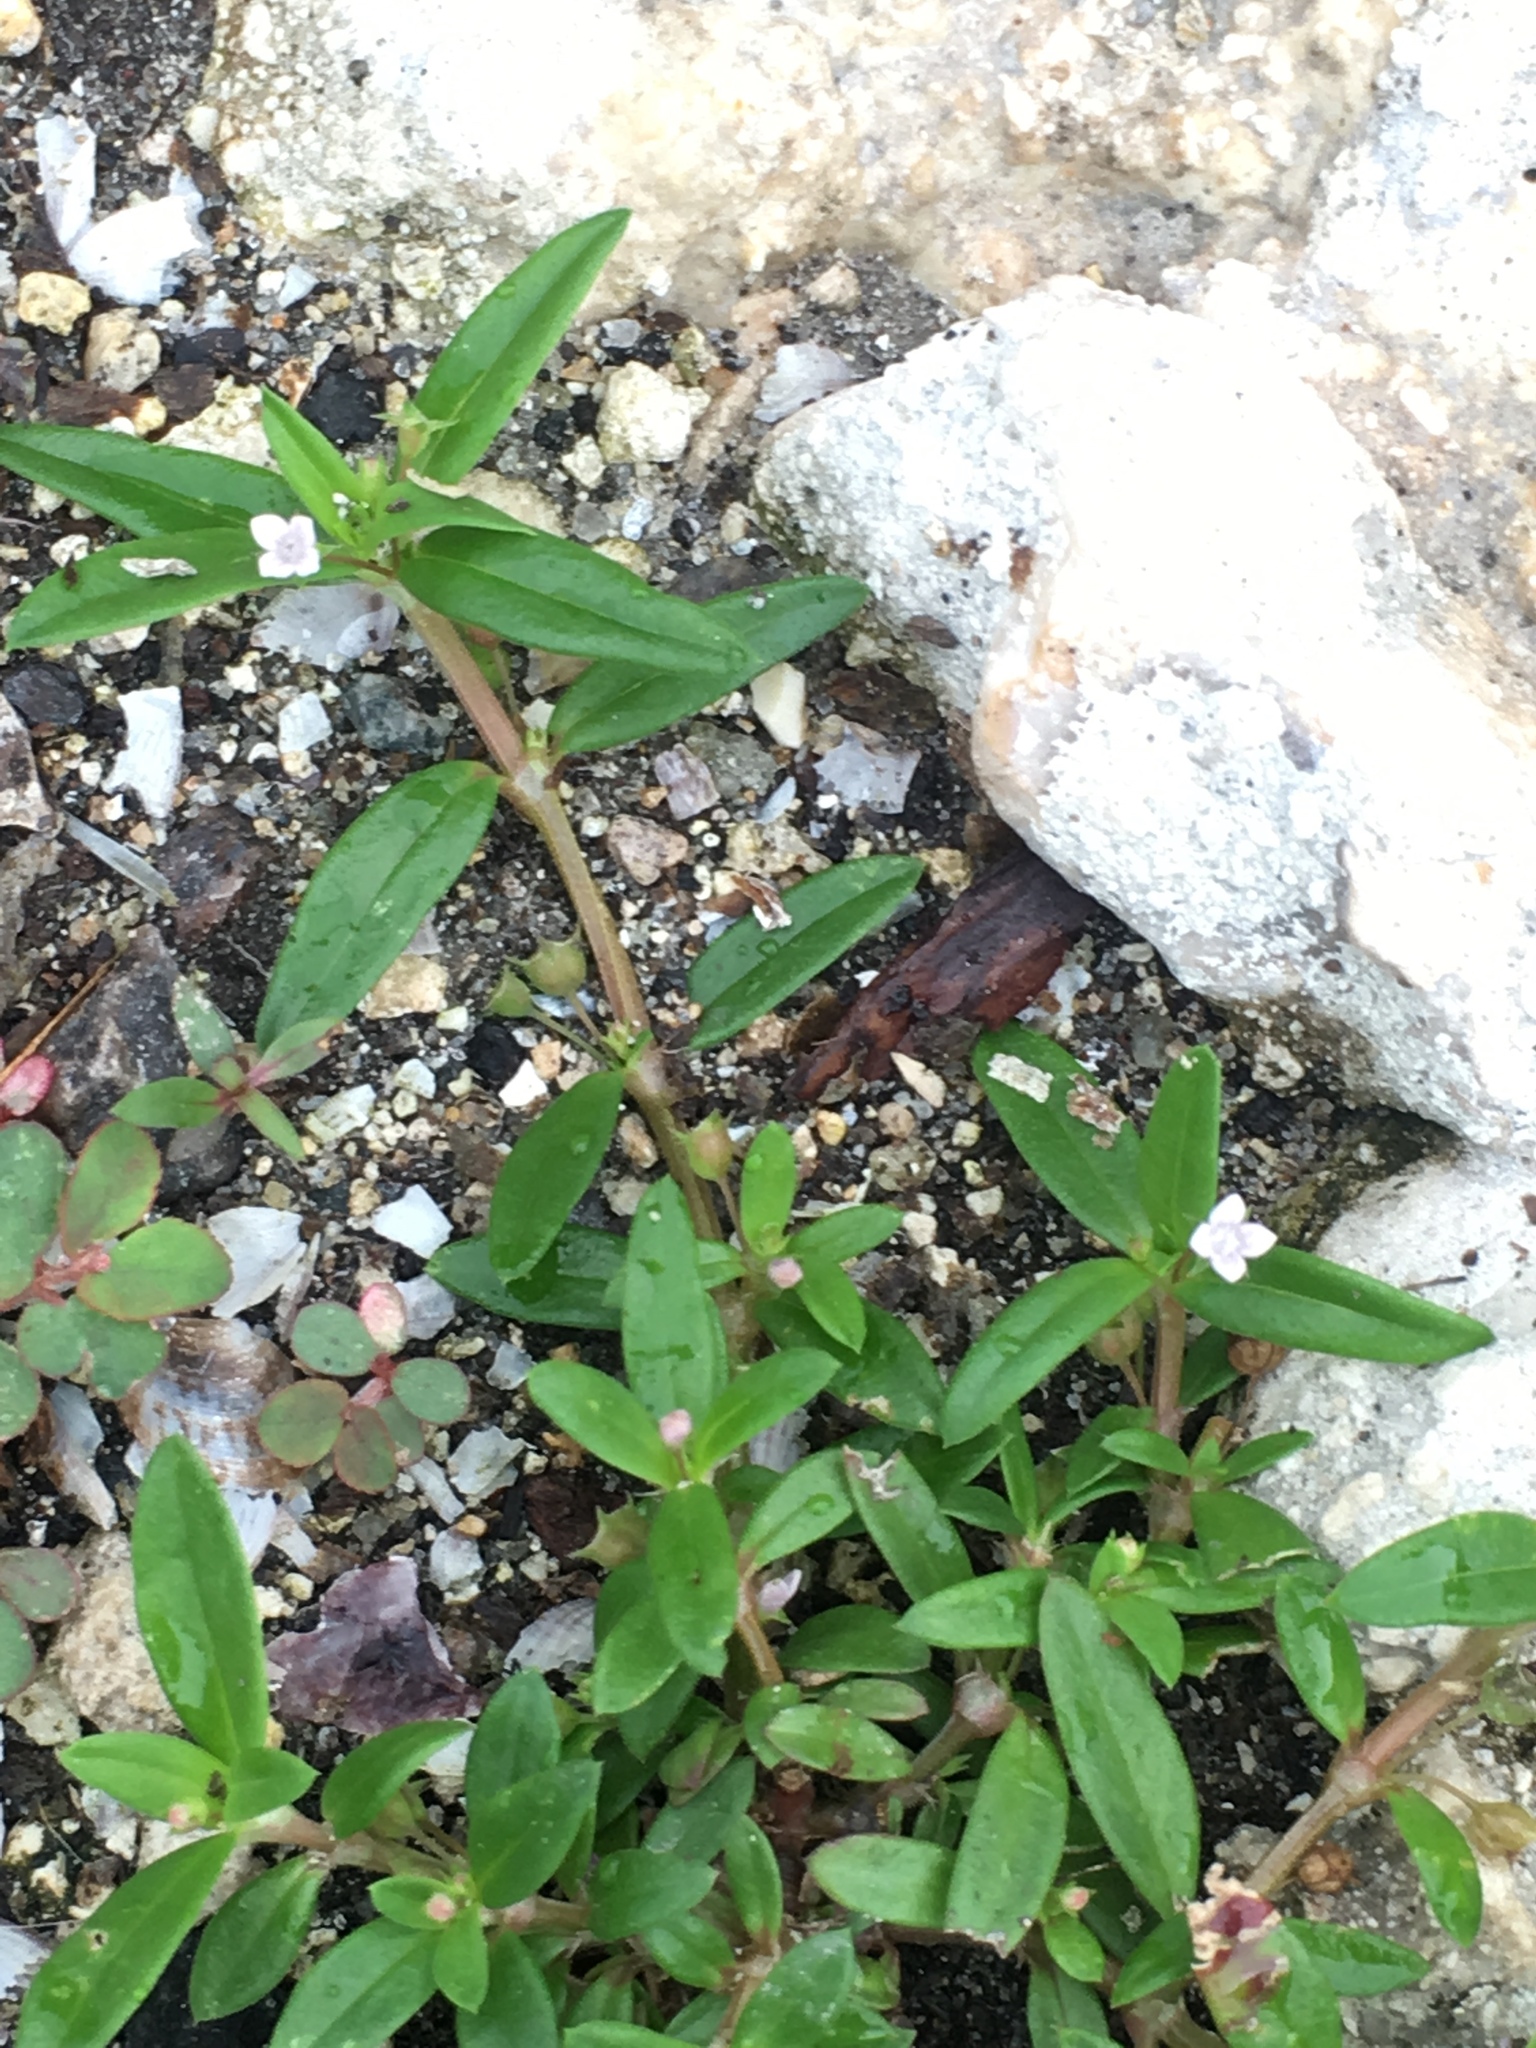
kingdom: Plantae
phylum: Tracheophyta
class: Magnoliopsida
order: Gentianales
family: Rubiaceae
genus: Oldenlandia
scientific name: Oldenlandia corymbosa
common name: Flat-top mille graines
